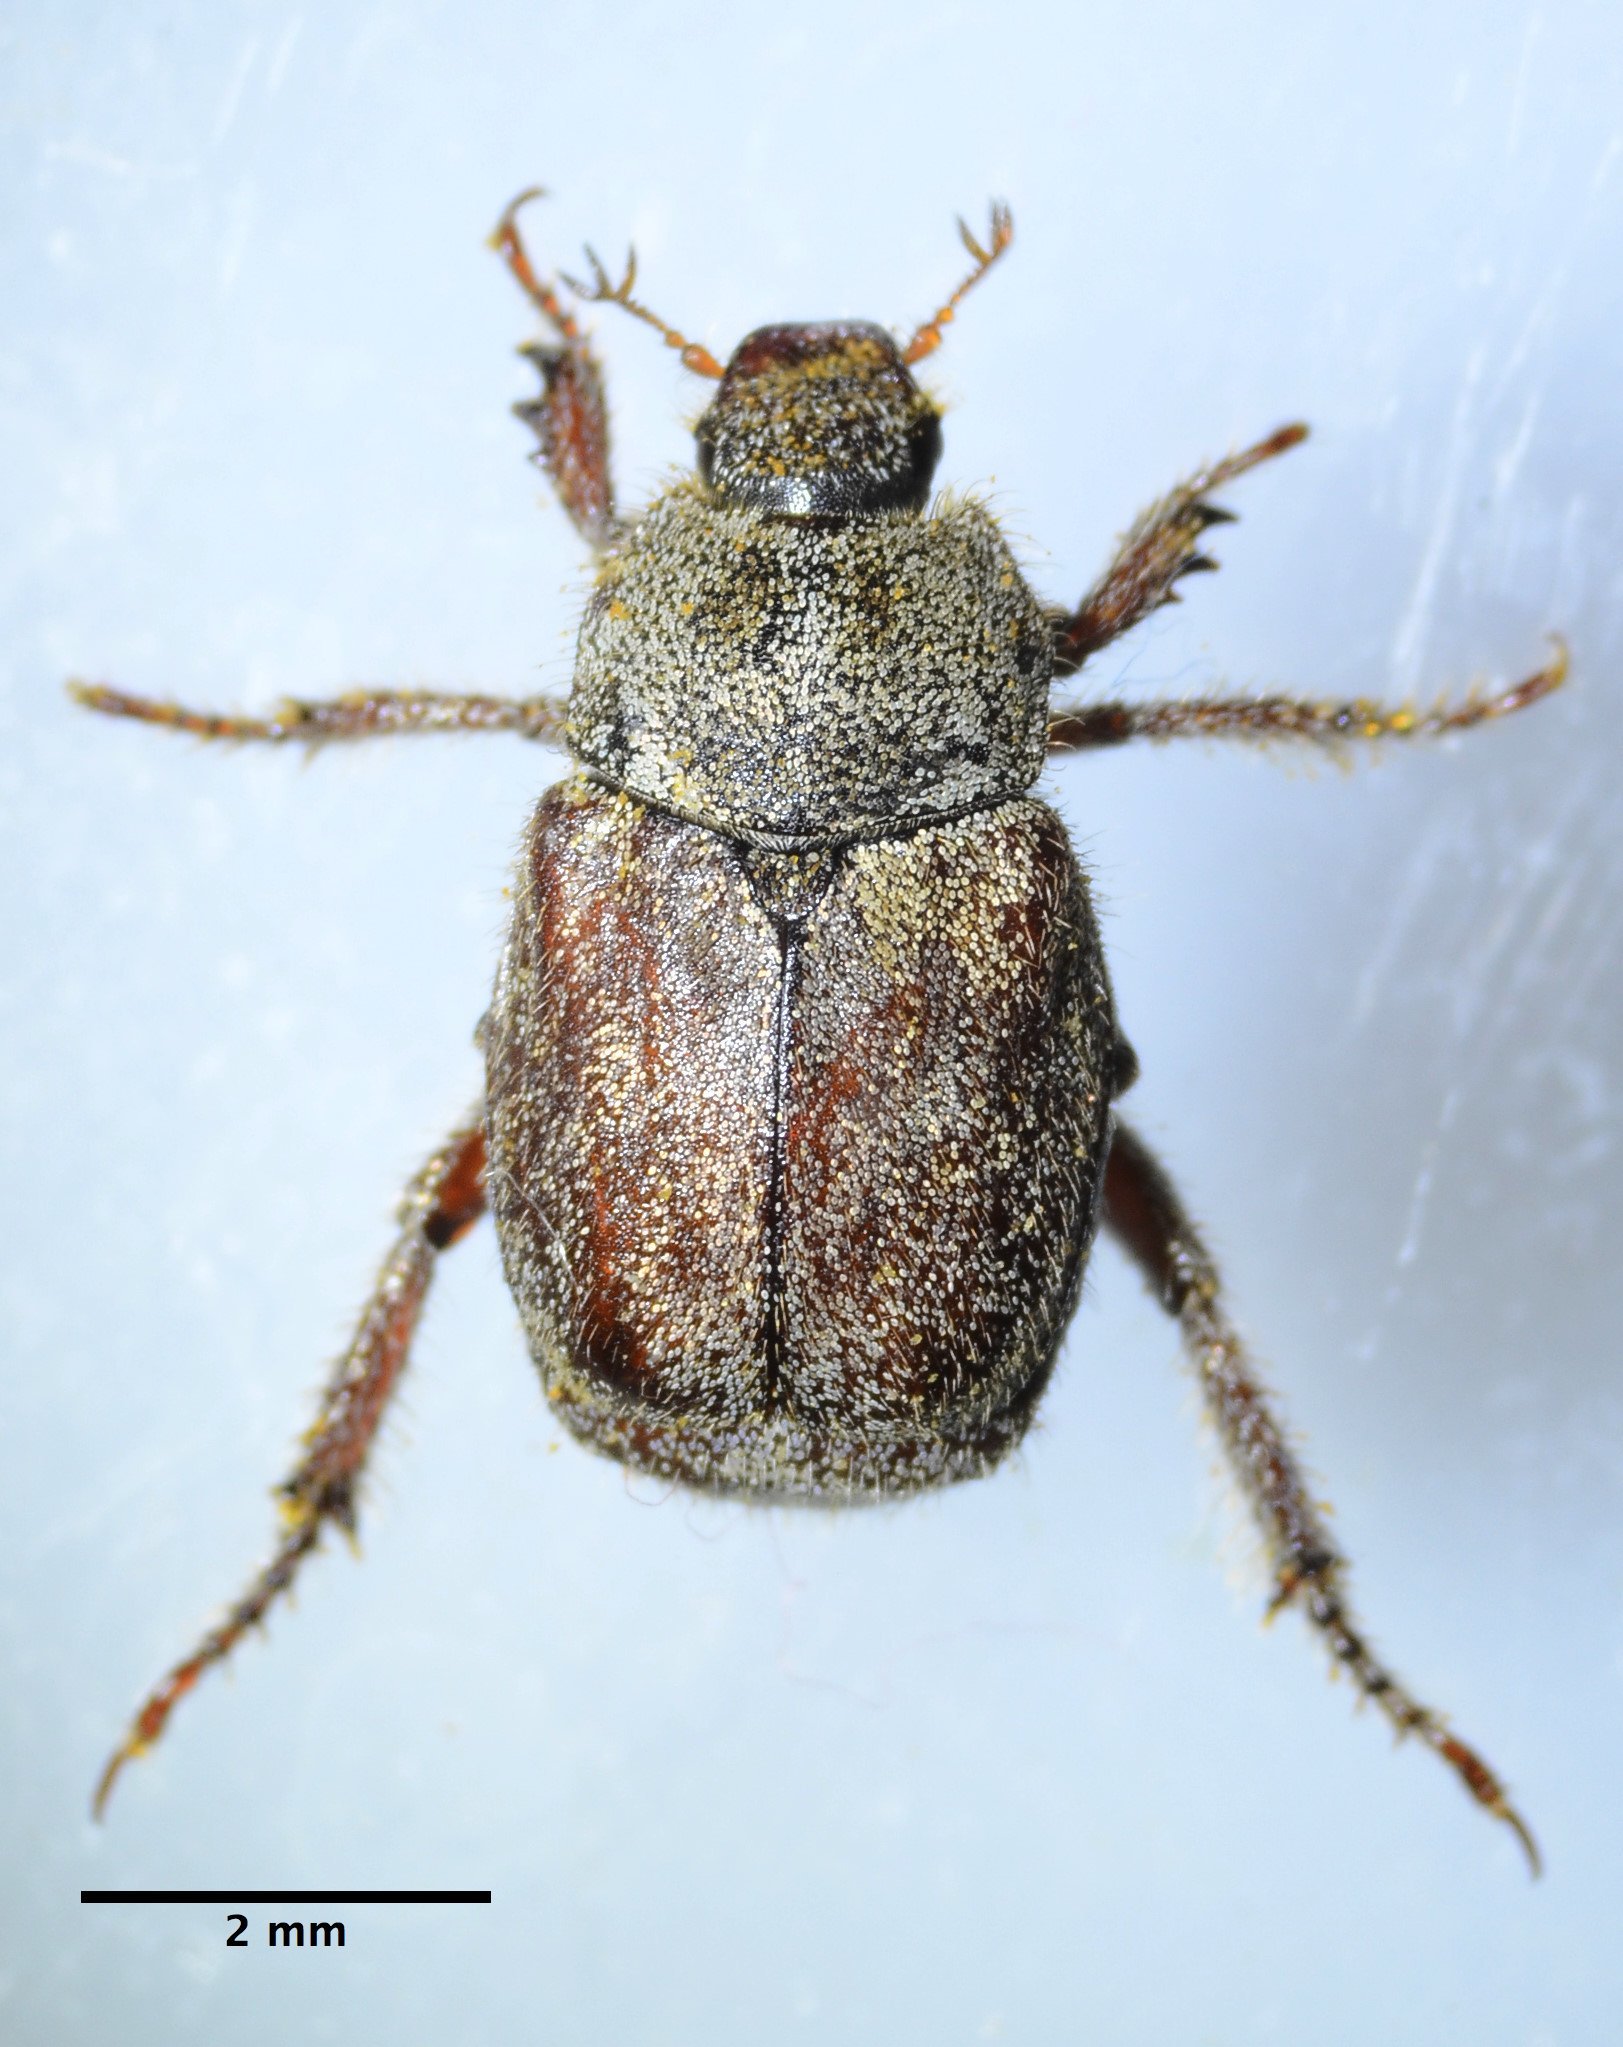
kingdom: Animalia
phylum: Arthropoda
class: Insecta
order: Coleoptera
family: Scarabaeidae
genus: Hoplia
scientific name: Hoplia callipyge
